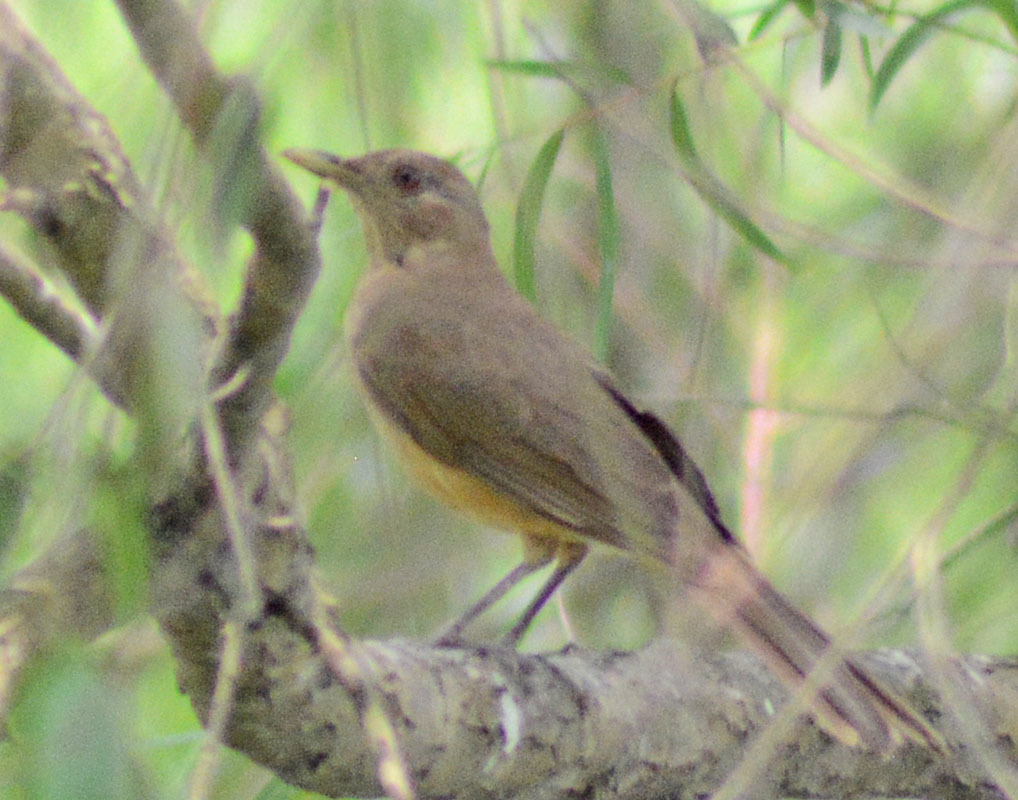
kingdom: Animalia
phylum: Chordata
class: Aves
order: Passeriformes
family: Turdidae
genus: Turdus
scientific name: Turdus grayi
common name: Clay-colored thrush
